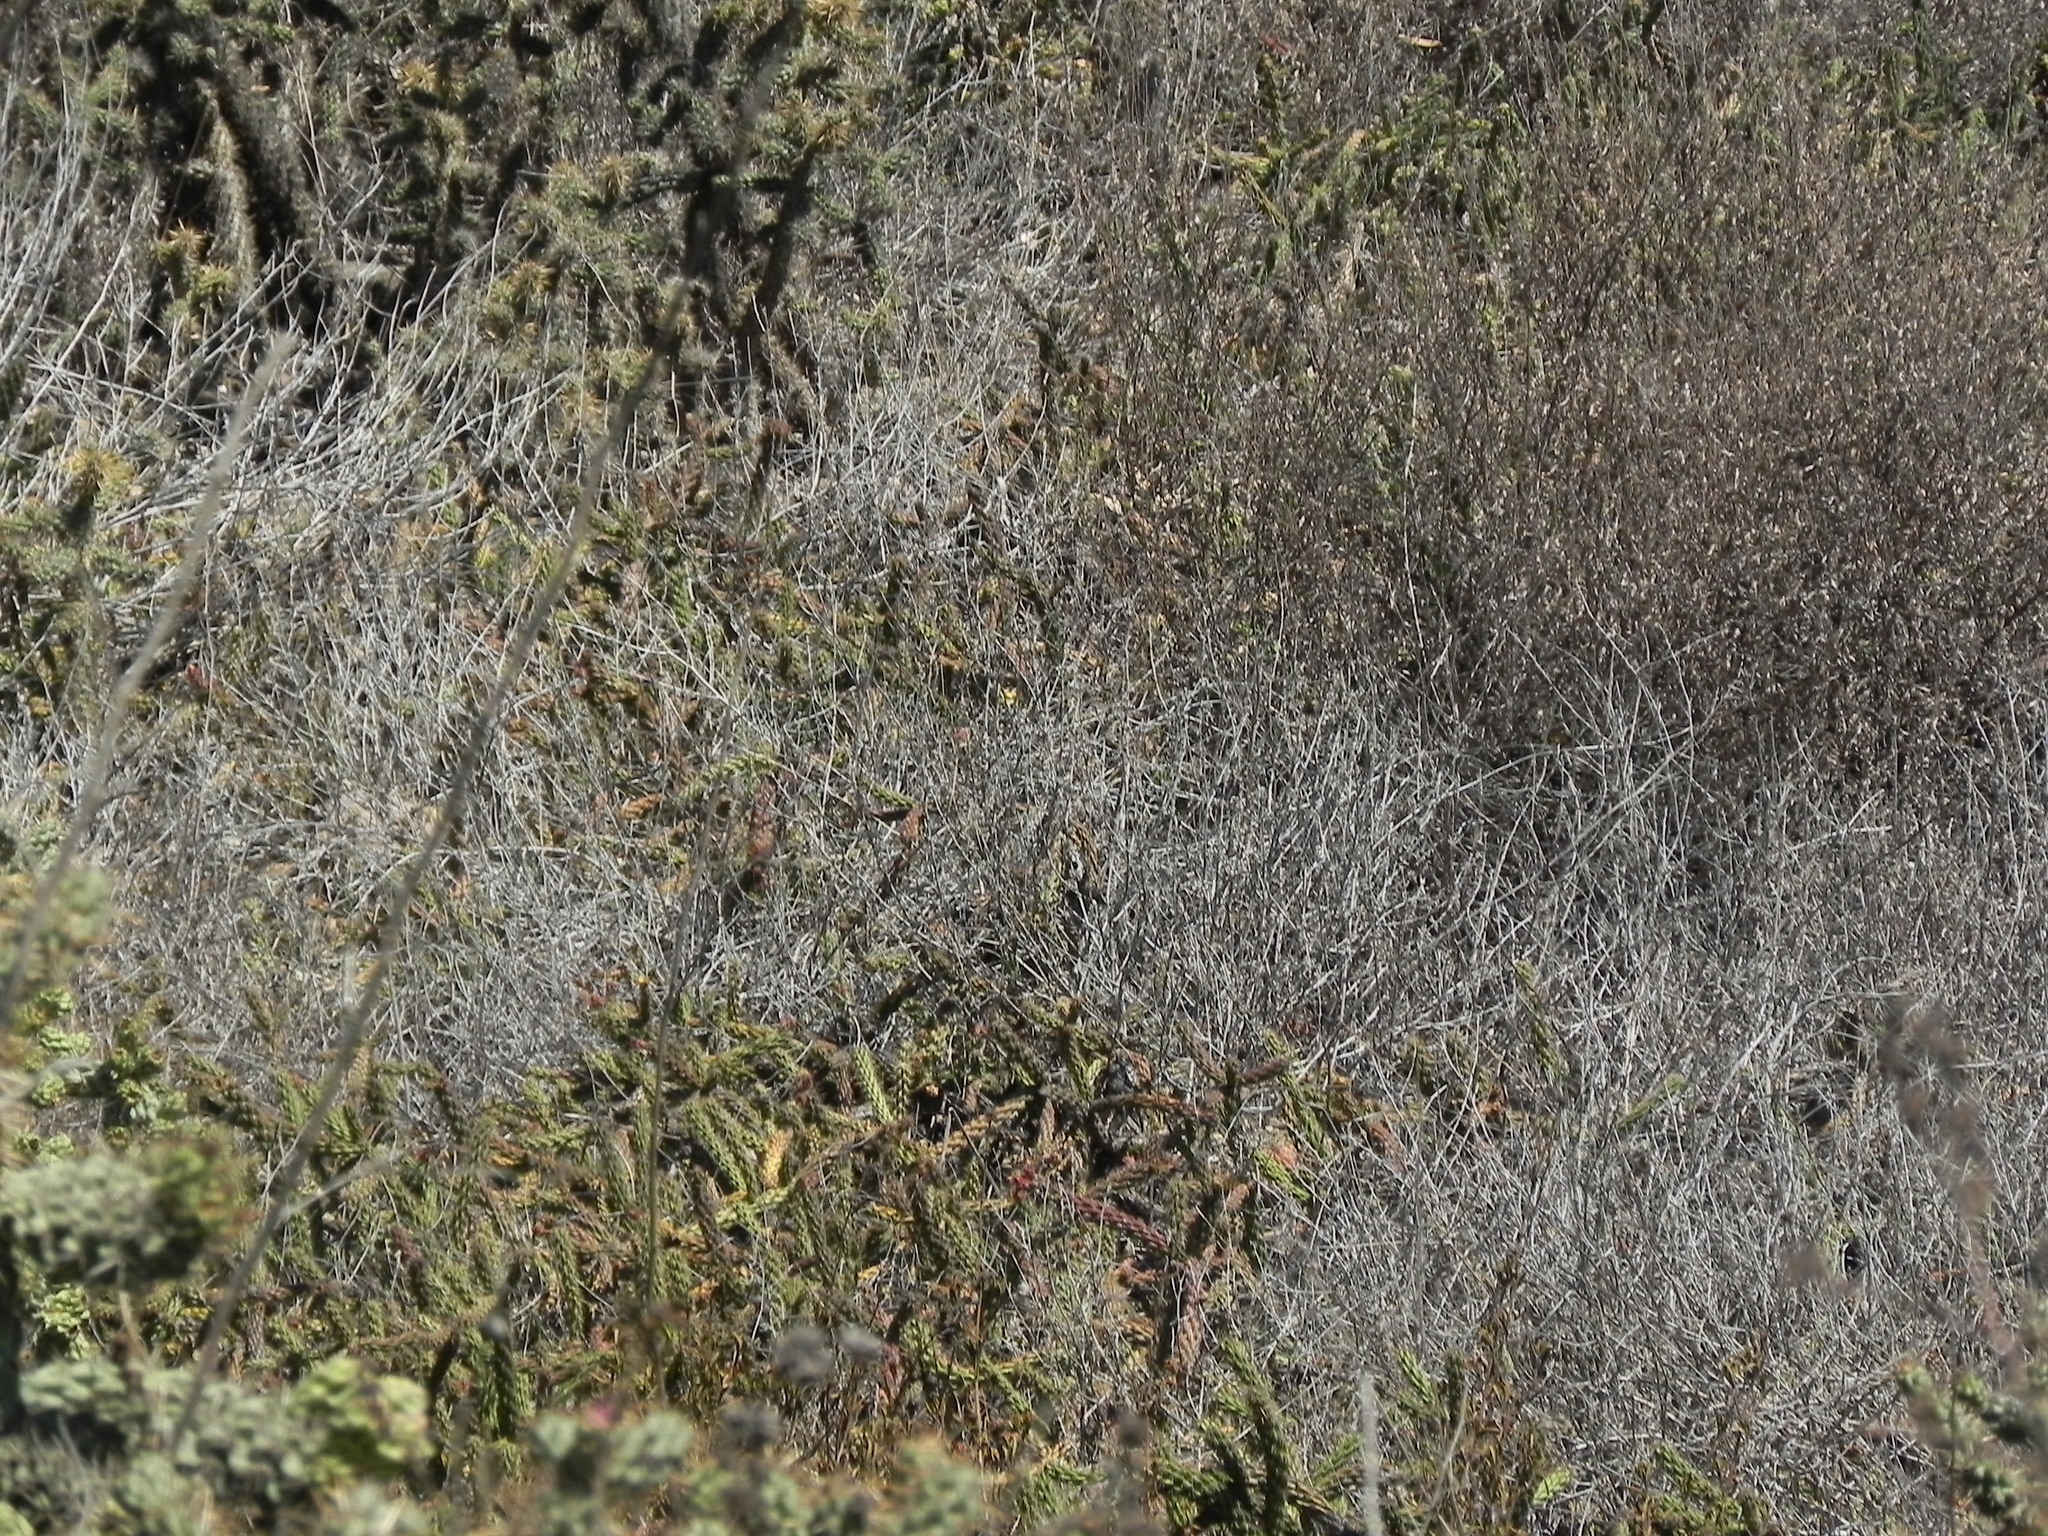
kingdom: Plantae
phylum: Tracheophyta
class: Magnoliopsida
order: Caryophyllales
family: Cactaceae
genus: Cylindropuntia
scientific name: Cylindropuntia californica
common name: Snake cholla
